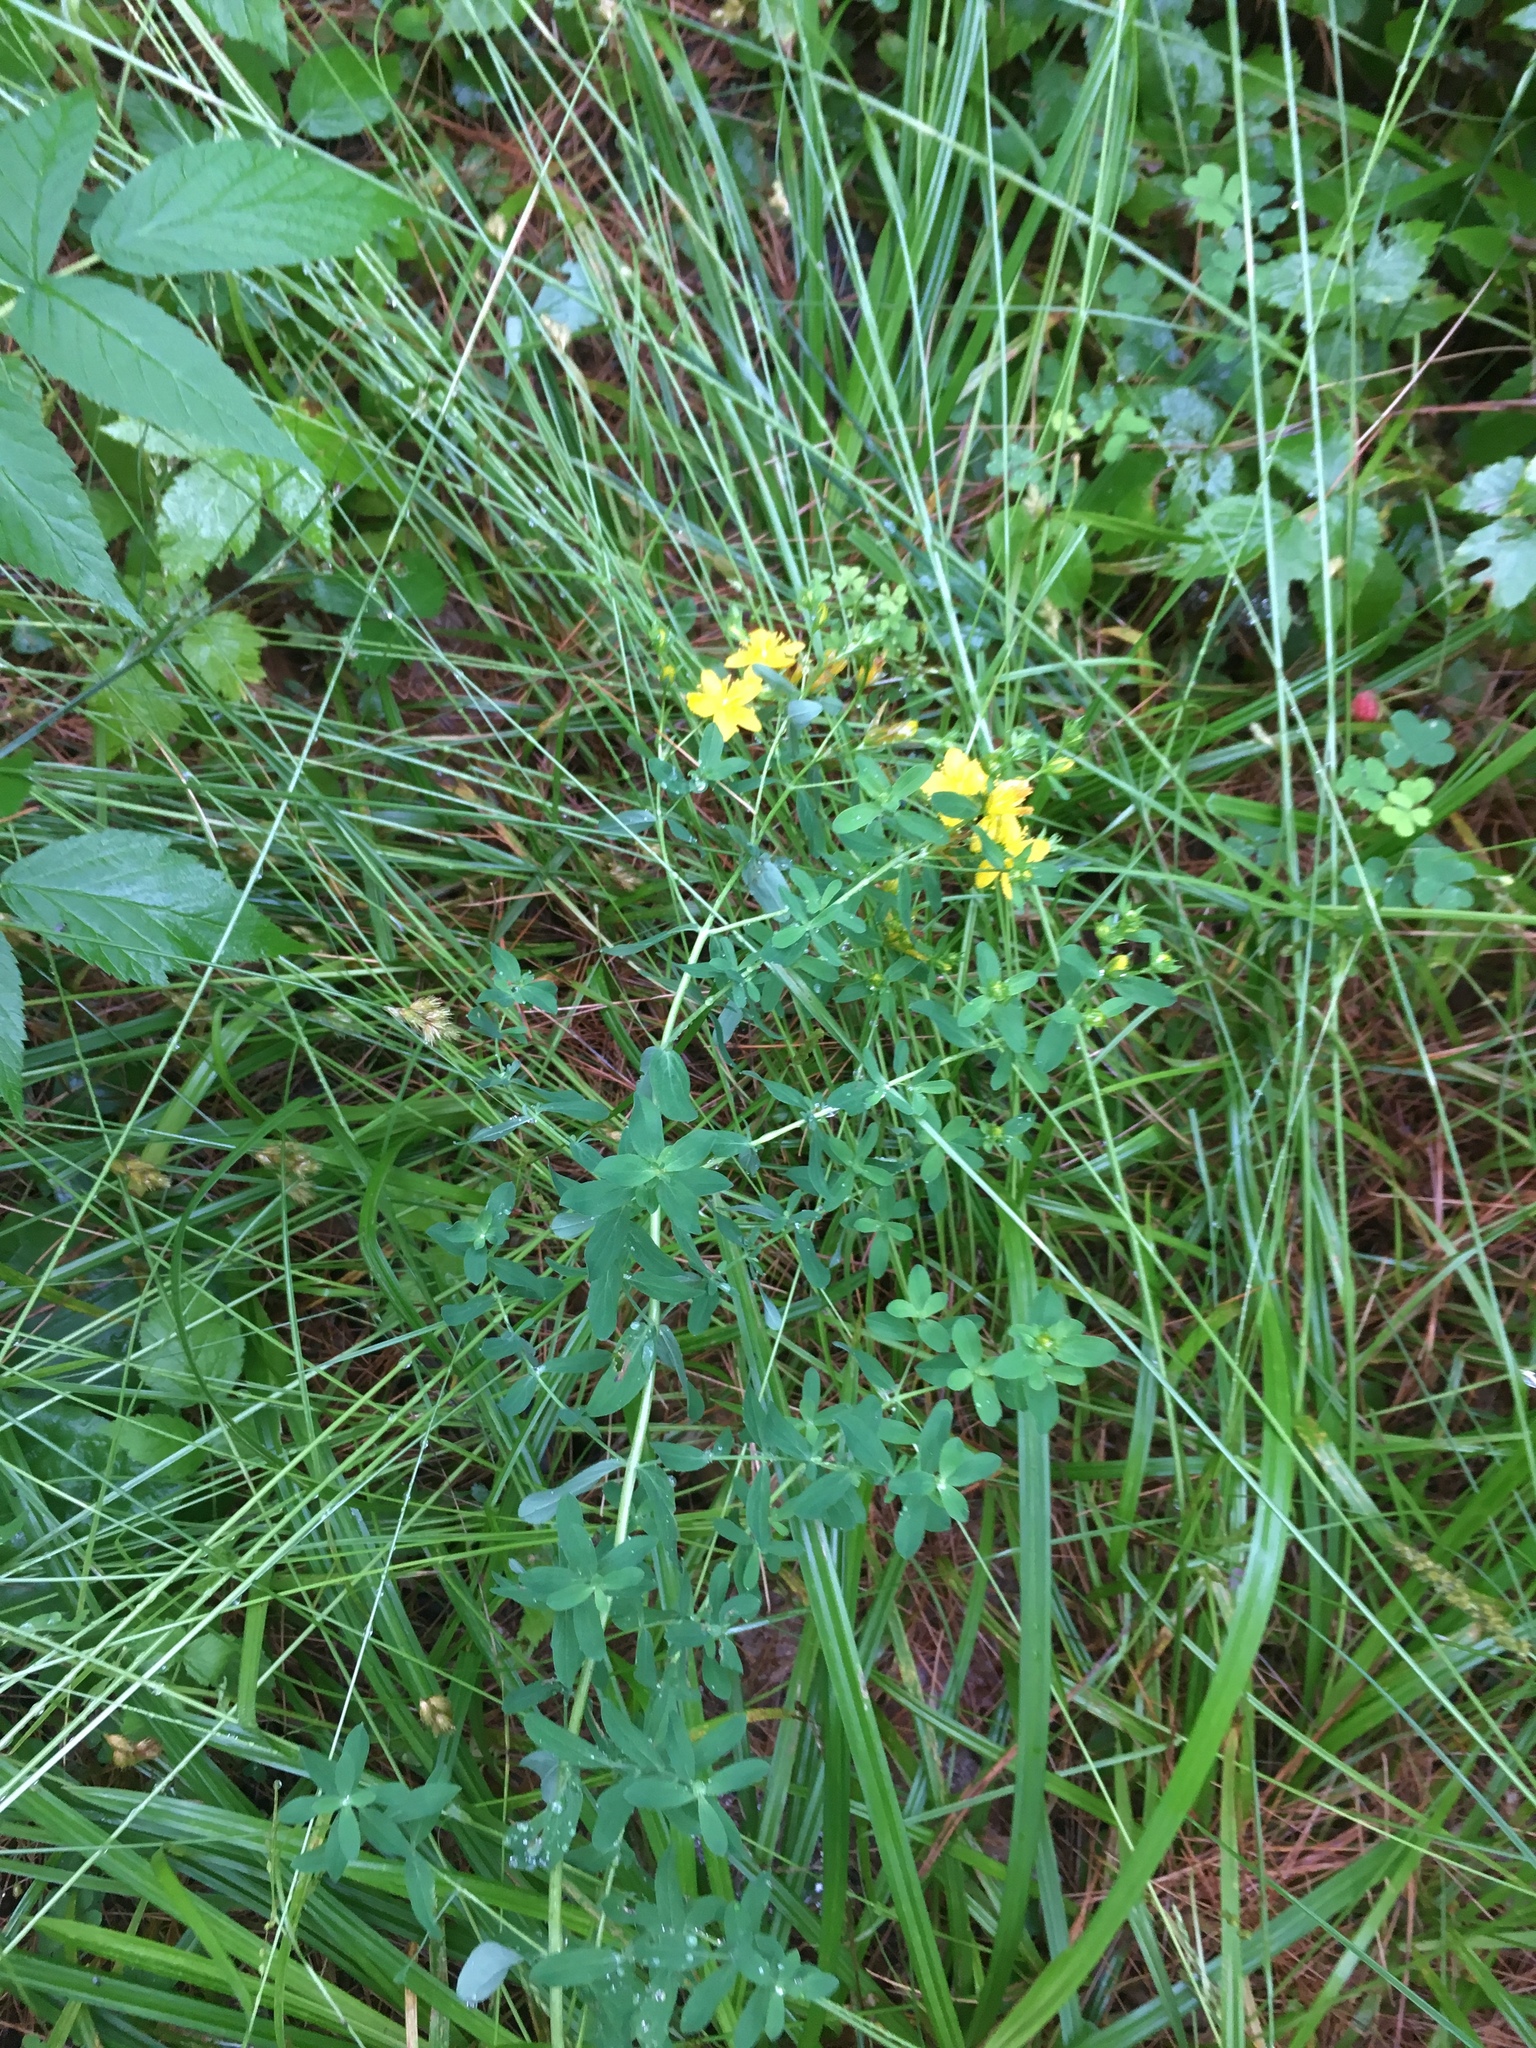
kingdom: Plantae
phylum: Tracheophyta
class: Magnoliopsida
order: Malpighiales
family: Hypericaceae
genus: Hypericum
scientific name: Hypericum perforatum
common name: Common st. johnswort
